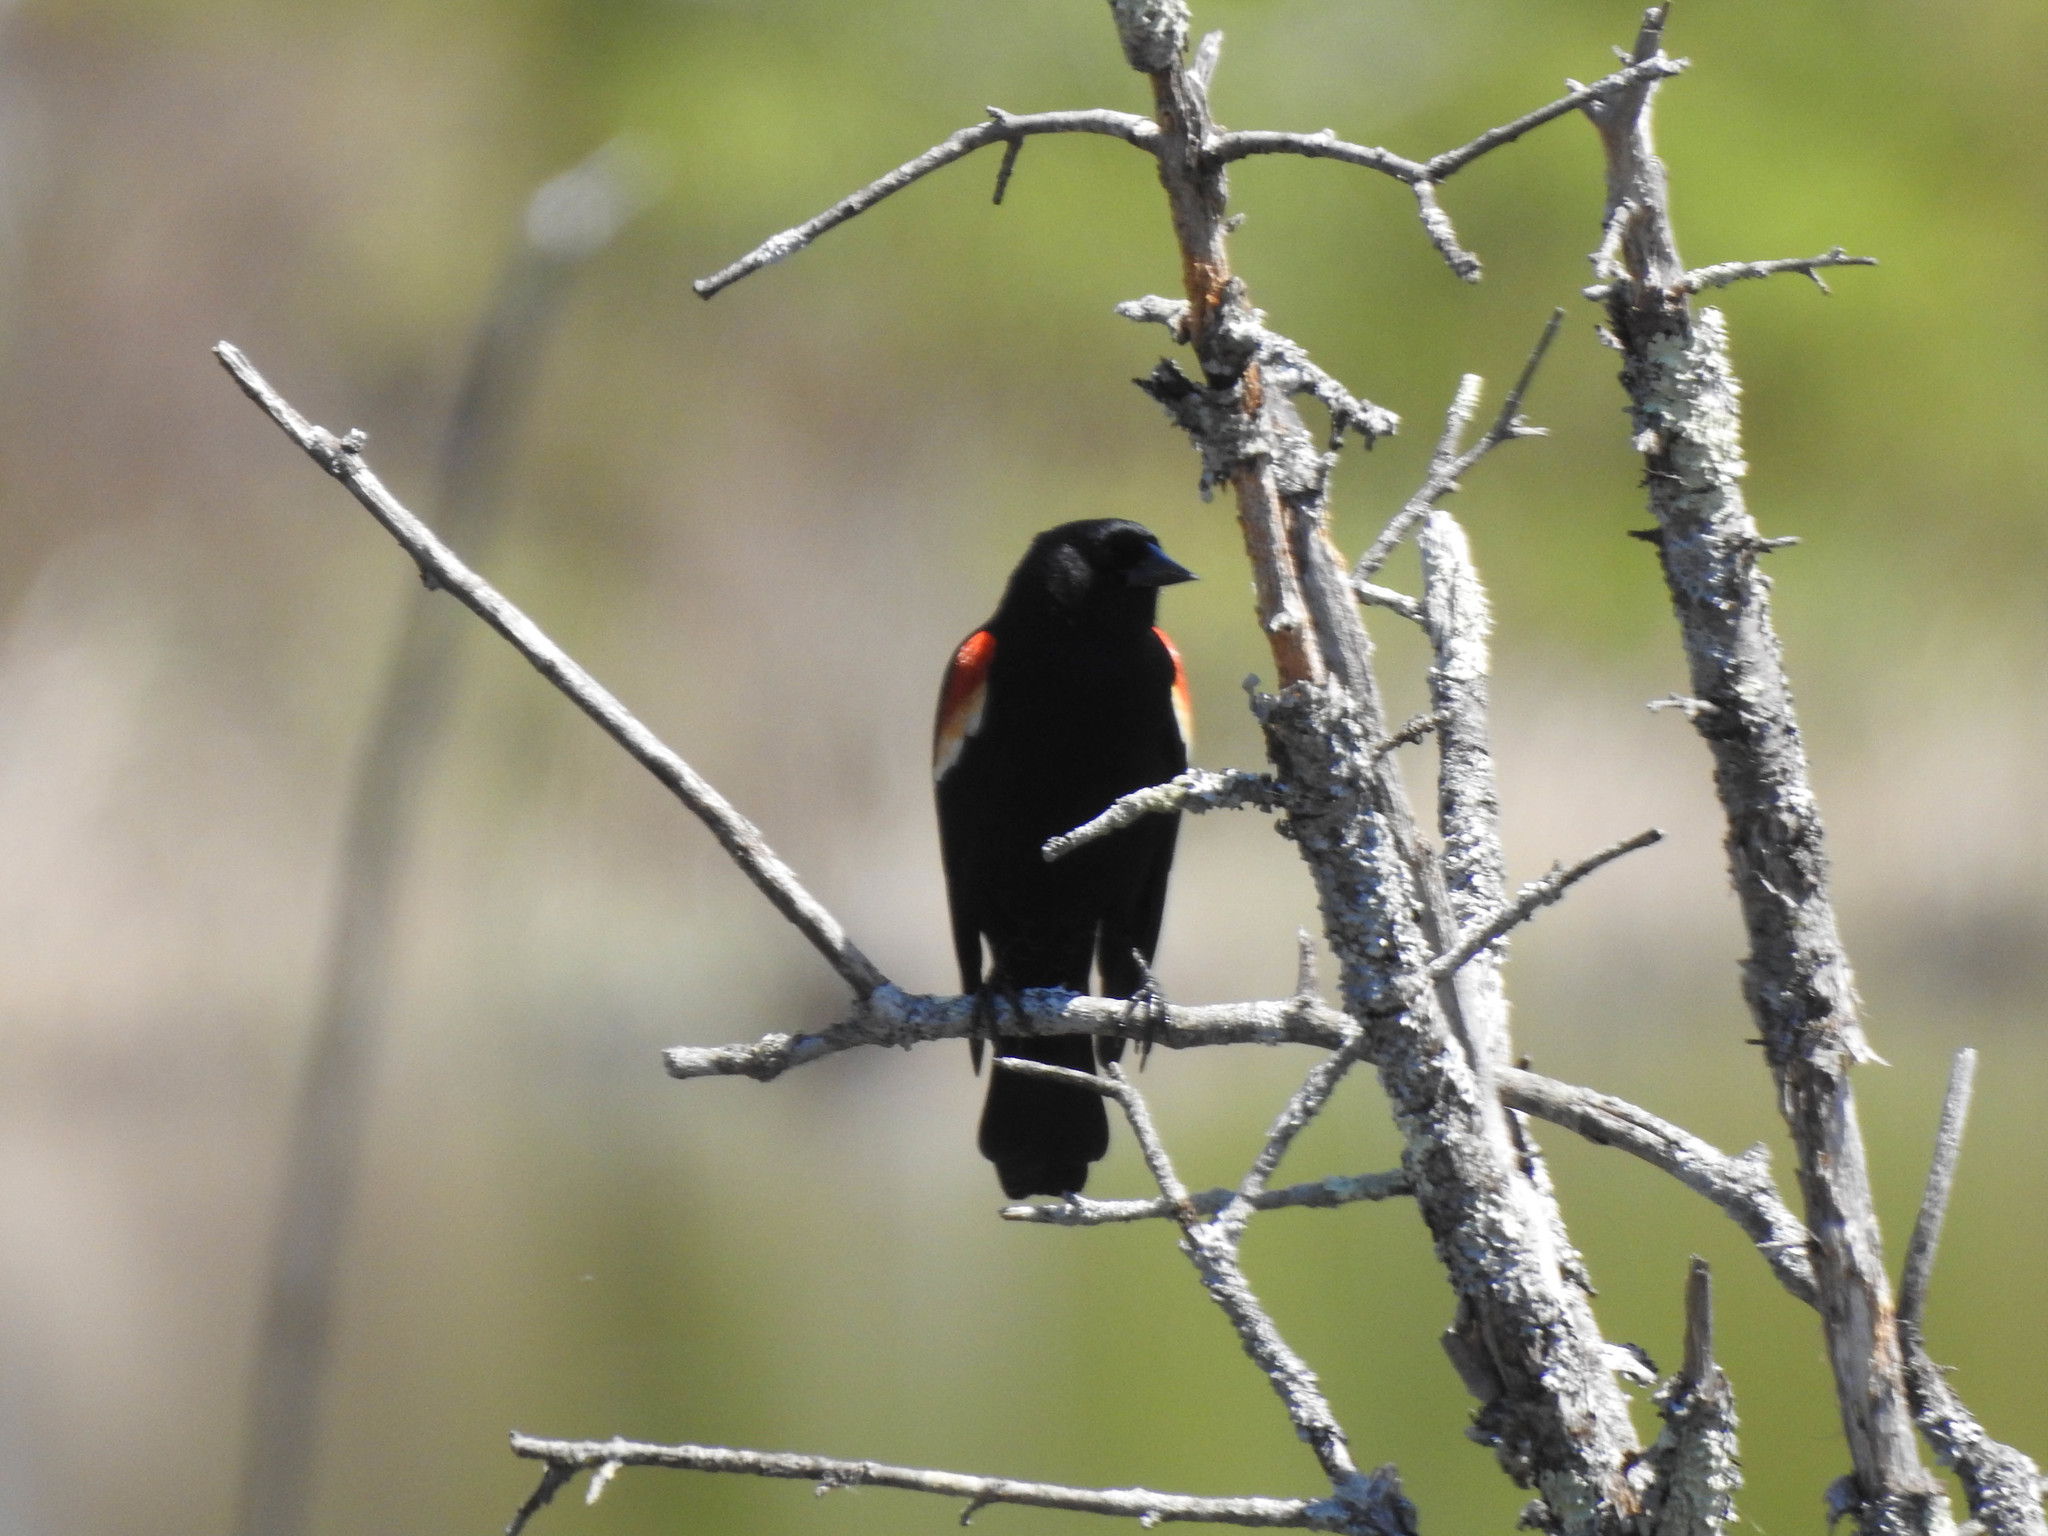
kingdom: Animalia
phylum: Chordata
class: Aves
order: Passeriformes
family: Icteridae
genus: Agelaius
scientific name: Agelaius phoeniceus
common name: Red-winged blackbird
